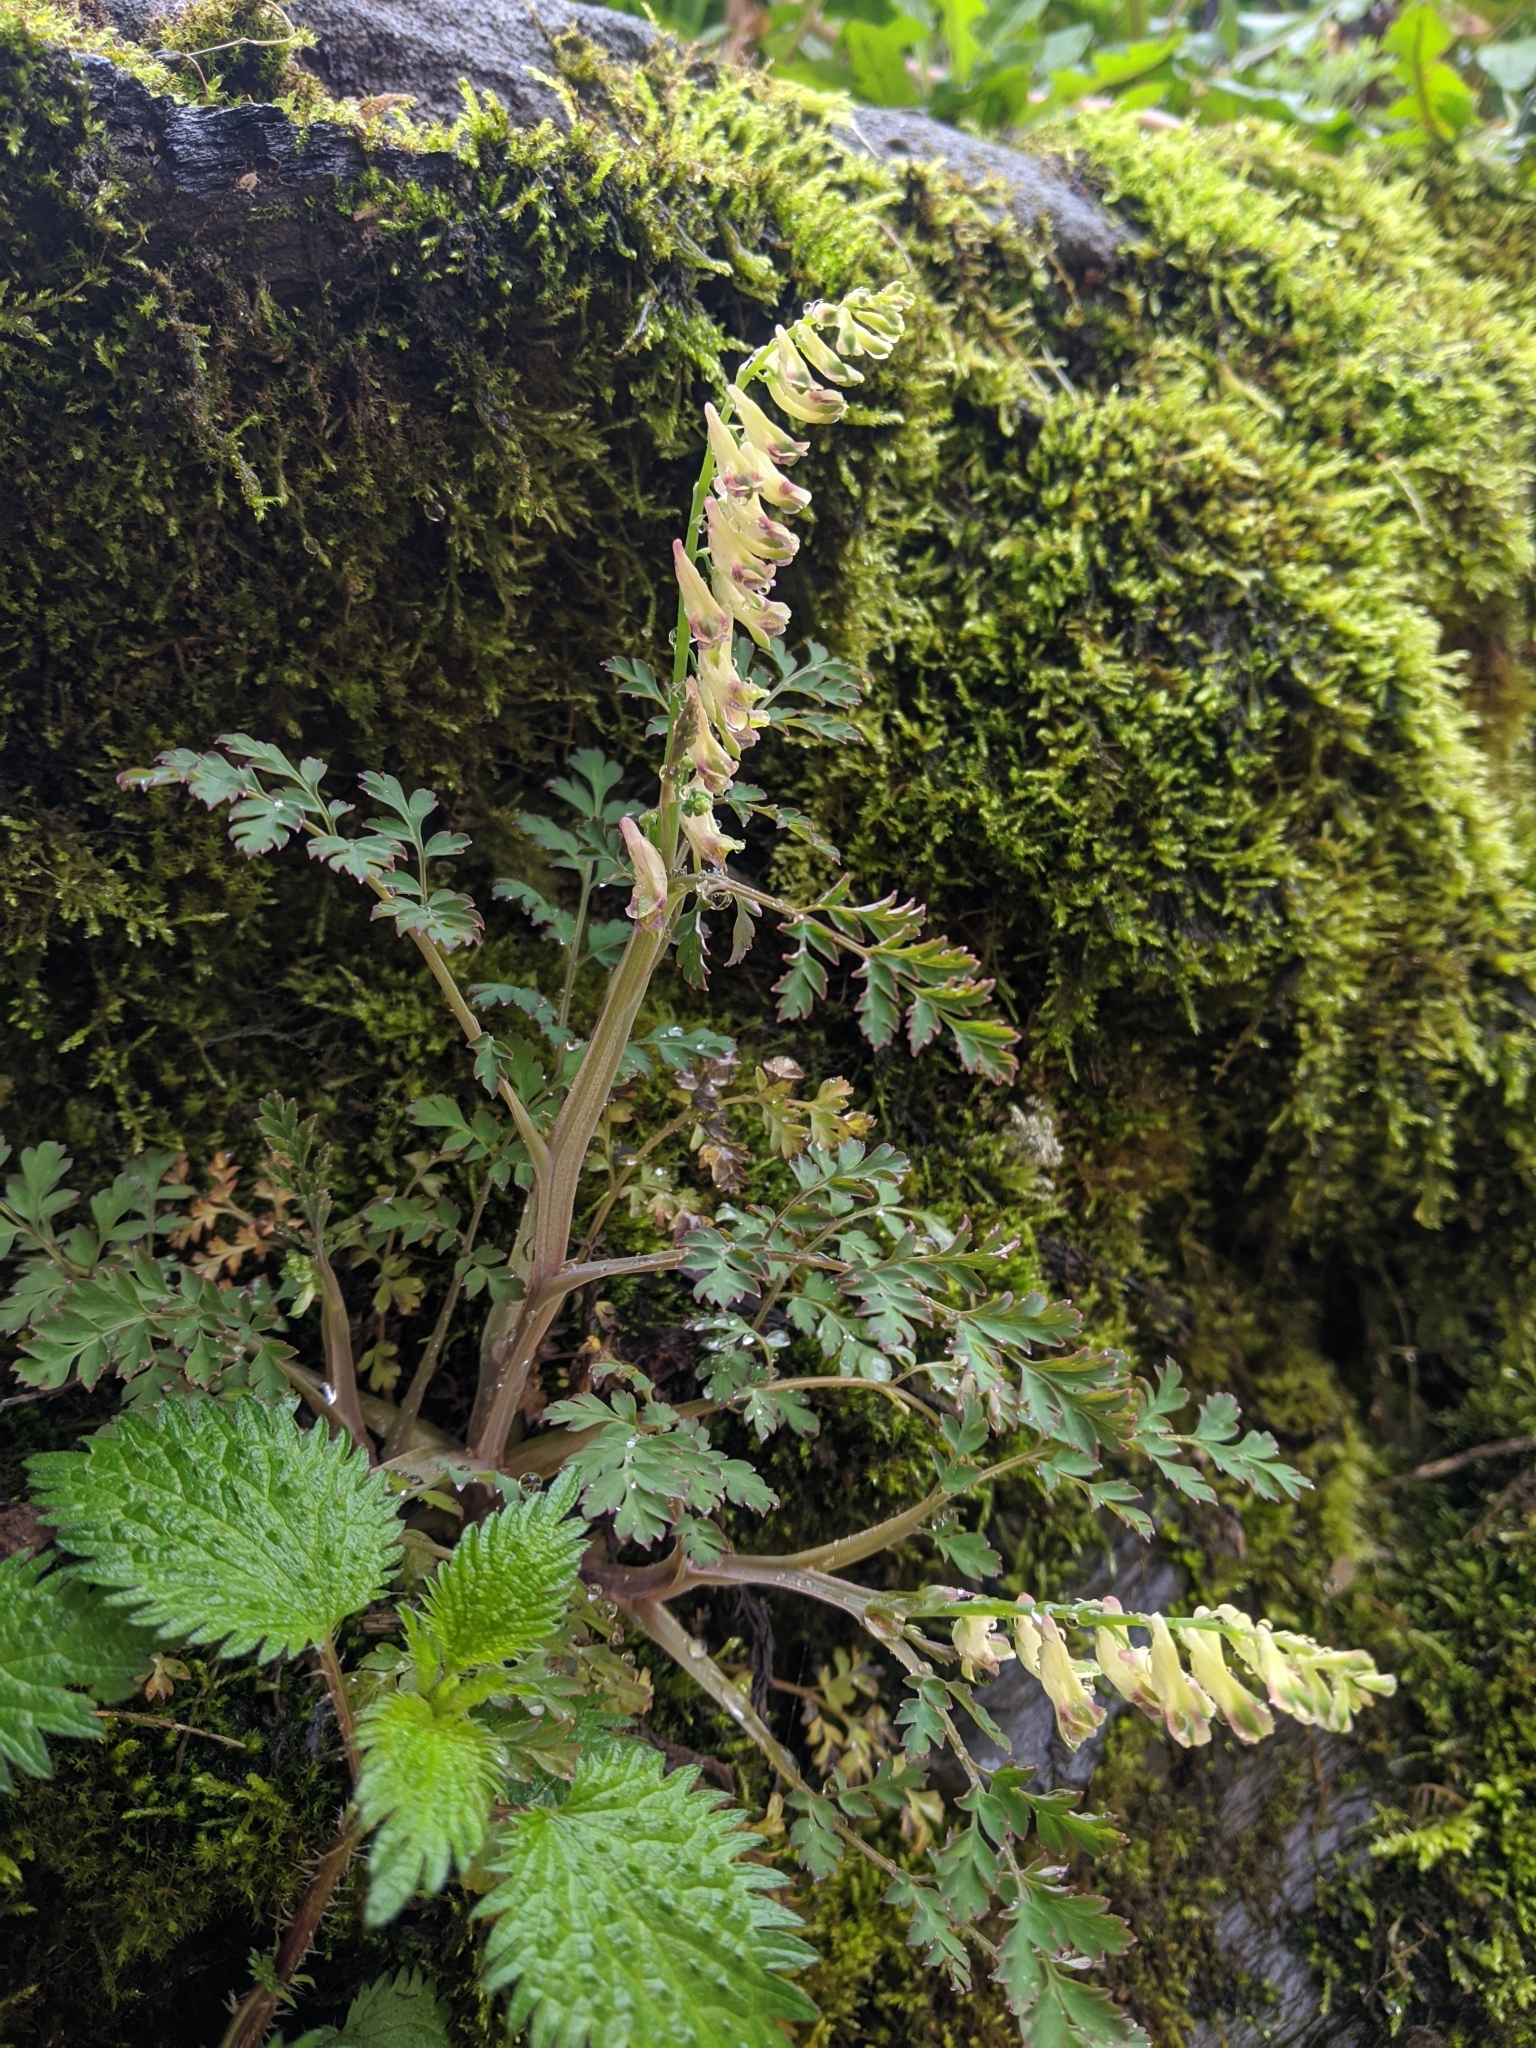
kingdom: Plantae
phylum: Tracheophyta
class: Magnoliopsida
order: Ranunculales
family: Papaveraceae
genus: Corydalis
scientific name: Corydalis ophiocarpa
